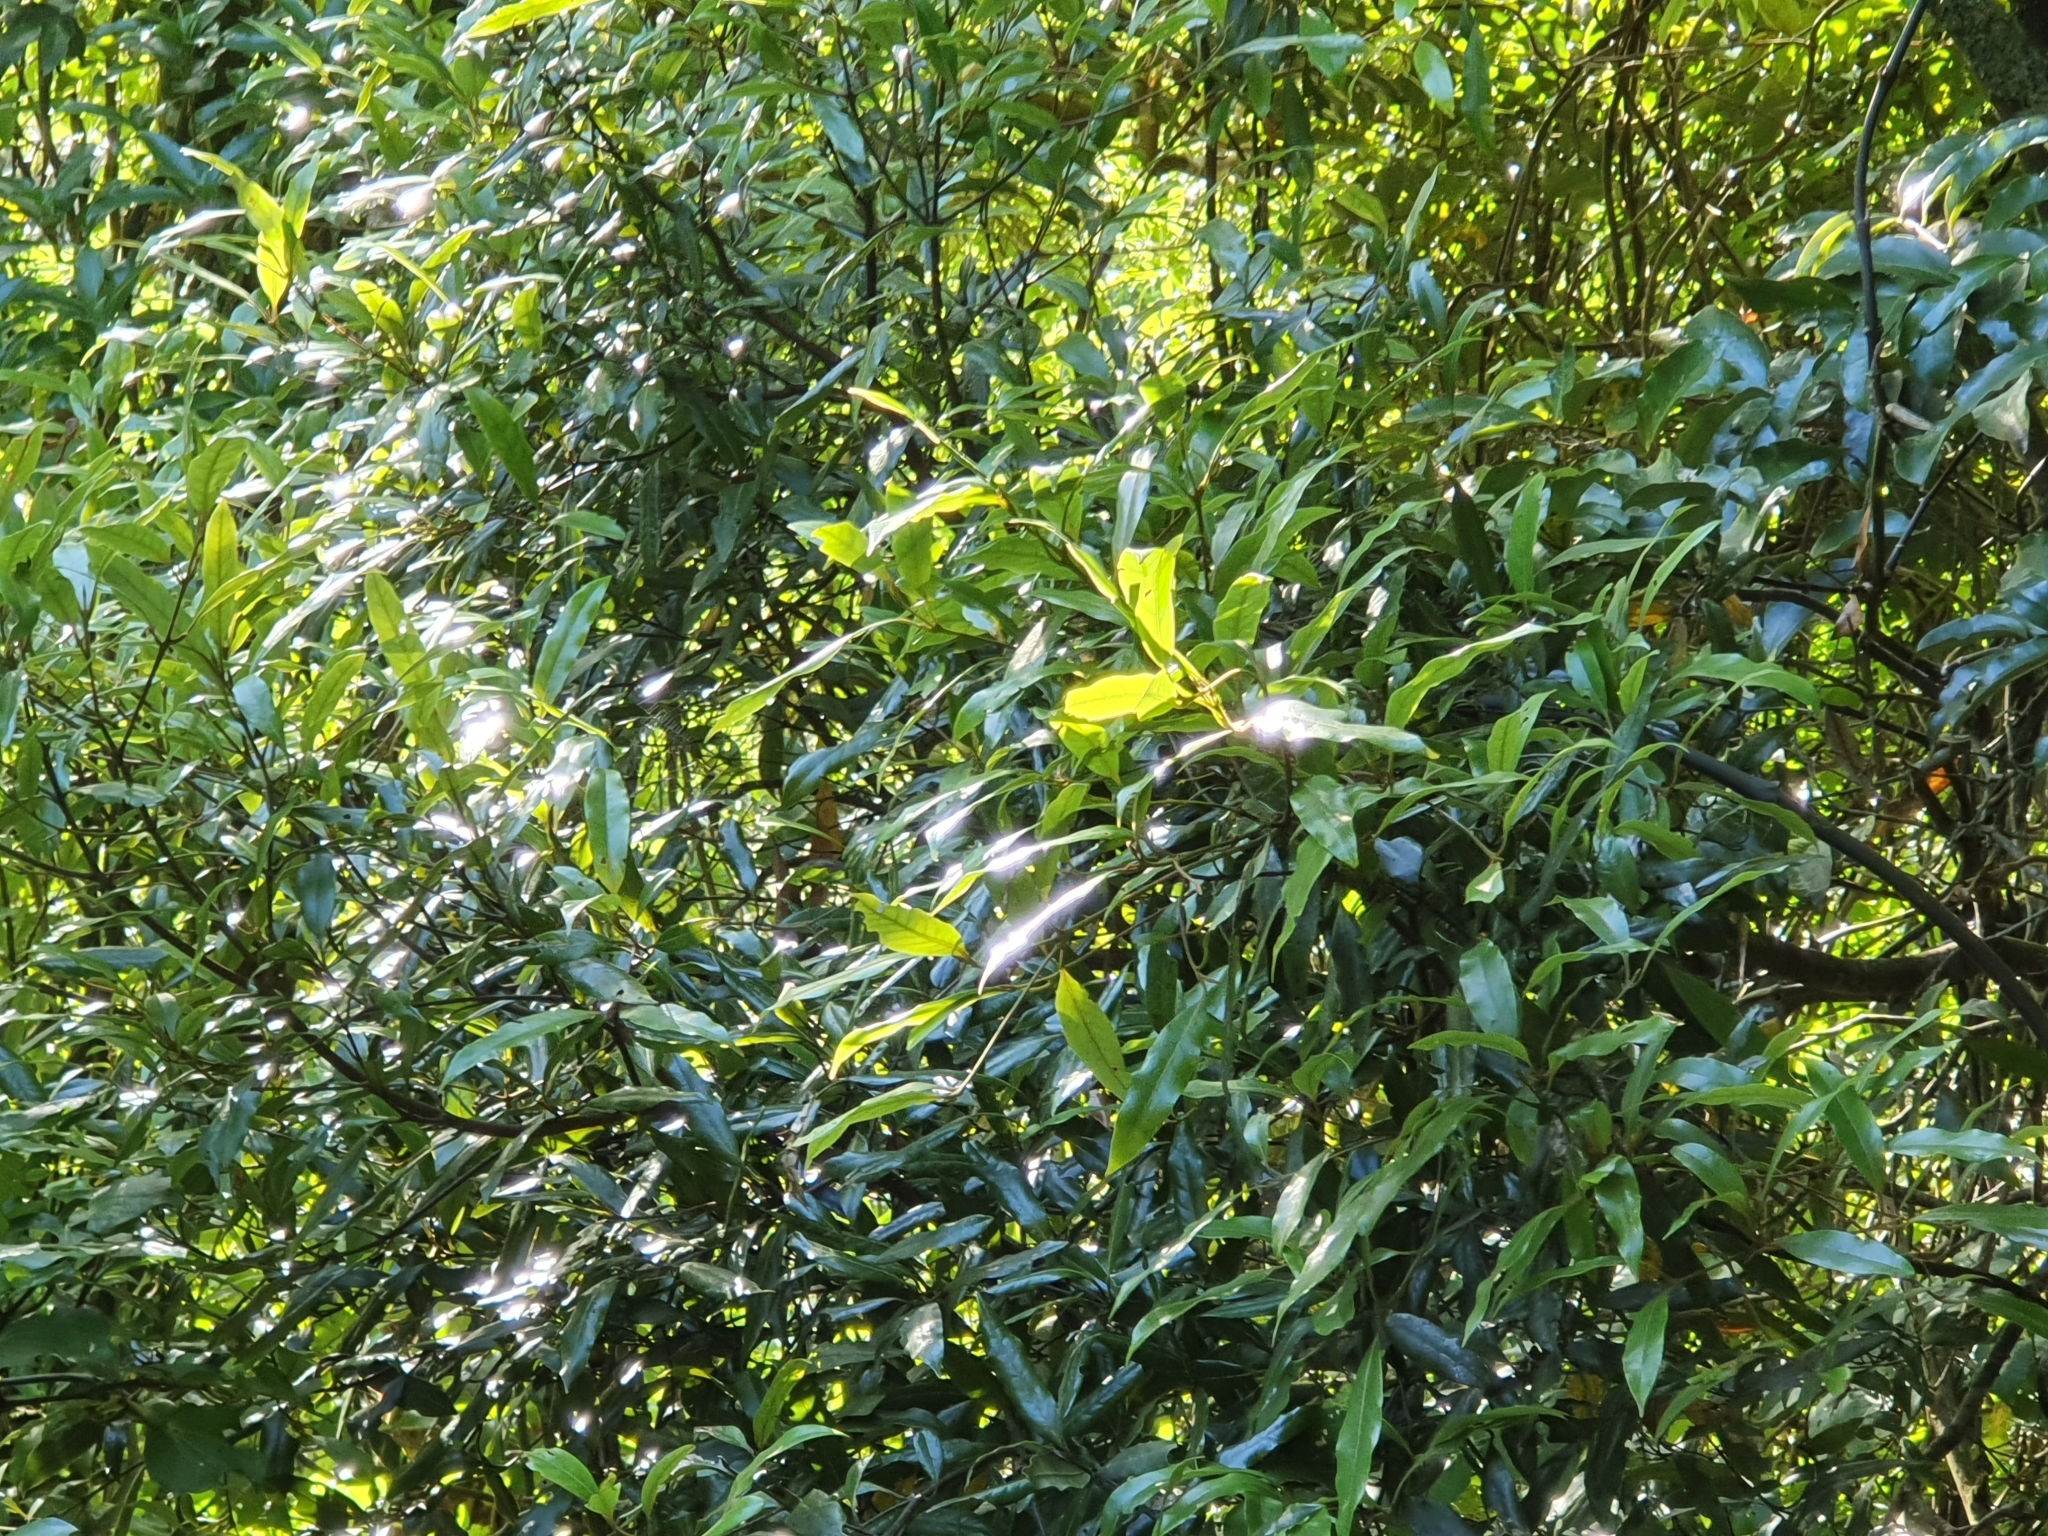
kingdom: Plantae
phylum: Tracheophyta
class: Magnoliopsida
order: Laurales
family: Lauraceae
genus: Beilschmiedia
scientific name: Beilschmiedia tawa
